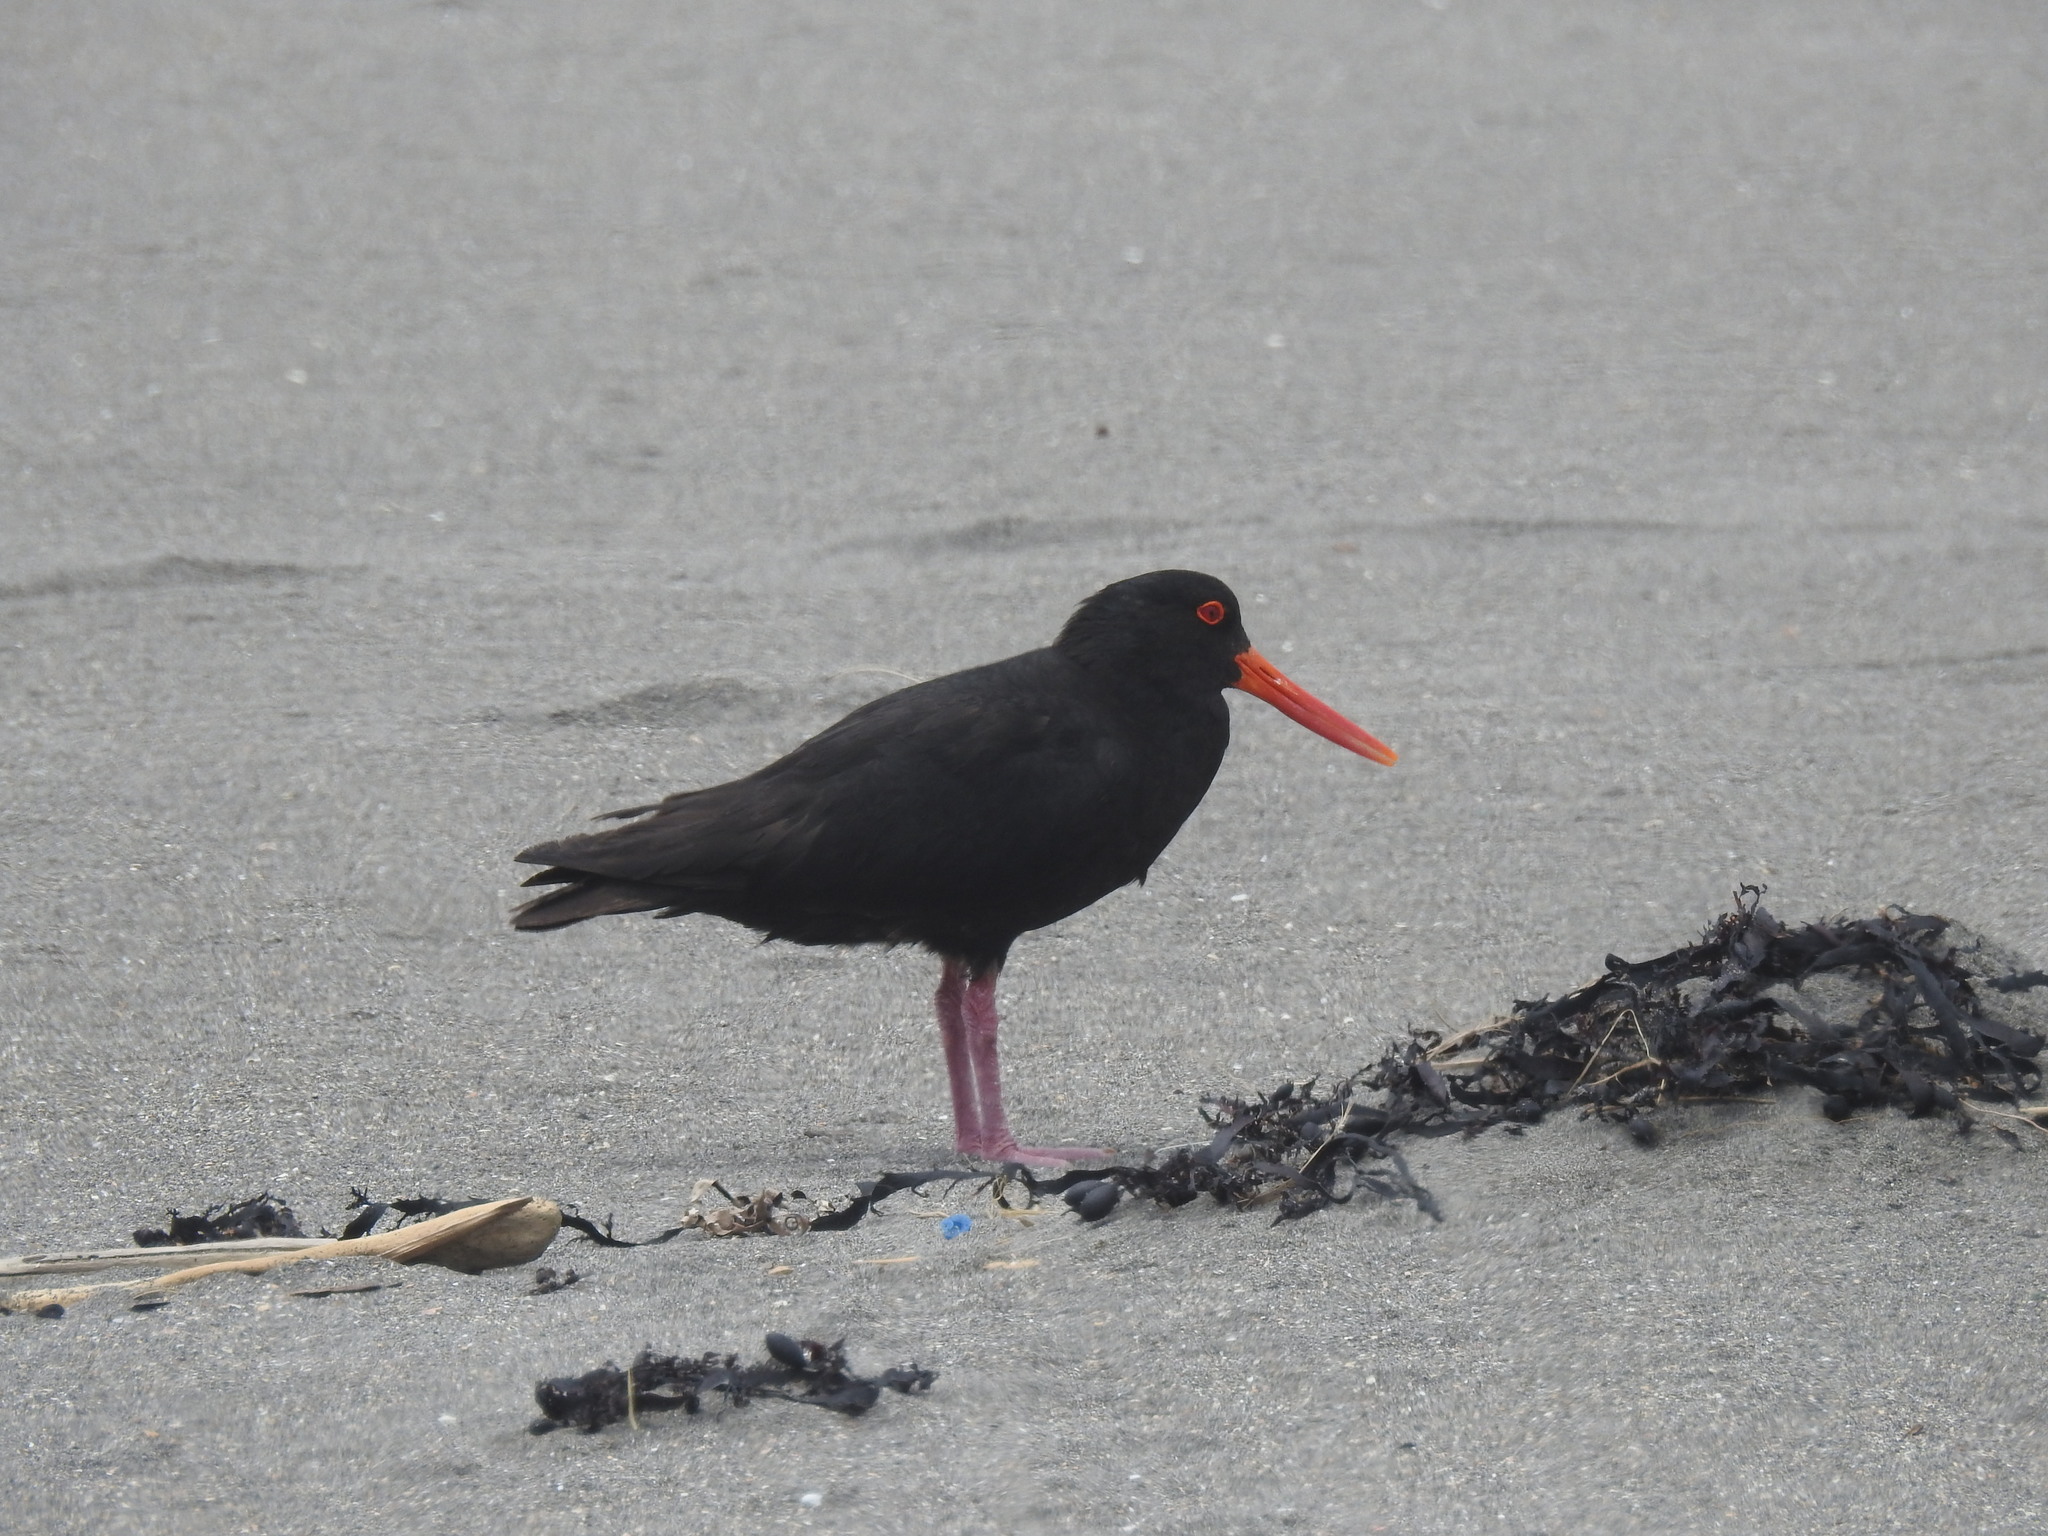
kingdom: Animalia
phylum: Chordata
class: Aves
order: Charadriiformes
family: Haematopodidae
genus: Haematopus
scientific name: Haematopus unicolor
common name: Variable oystercatcher
